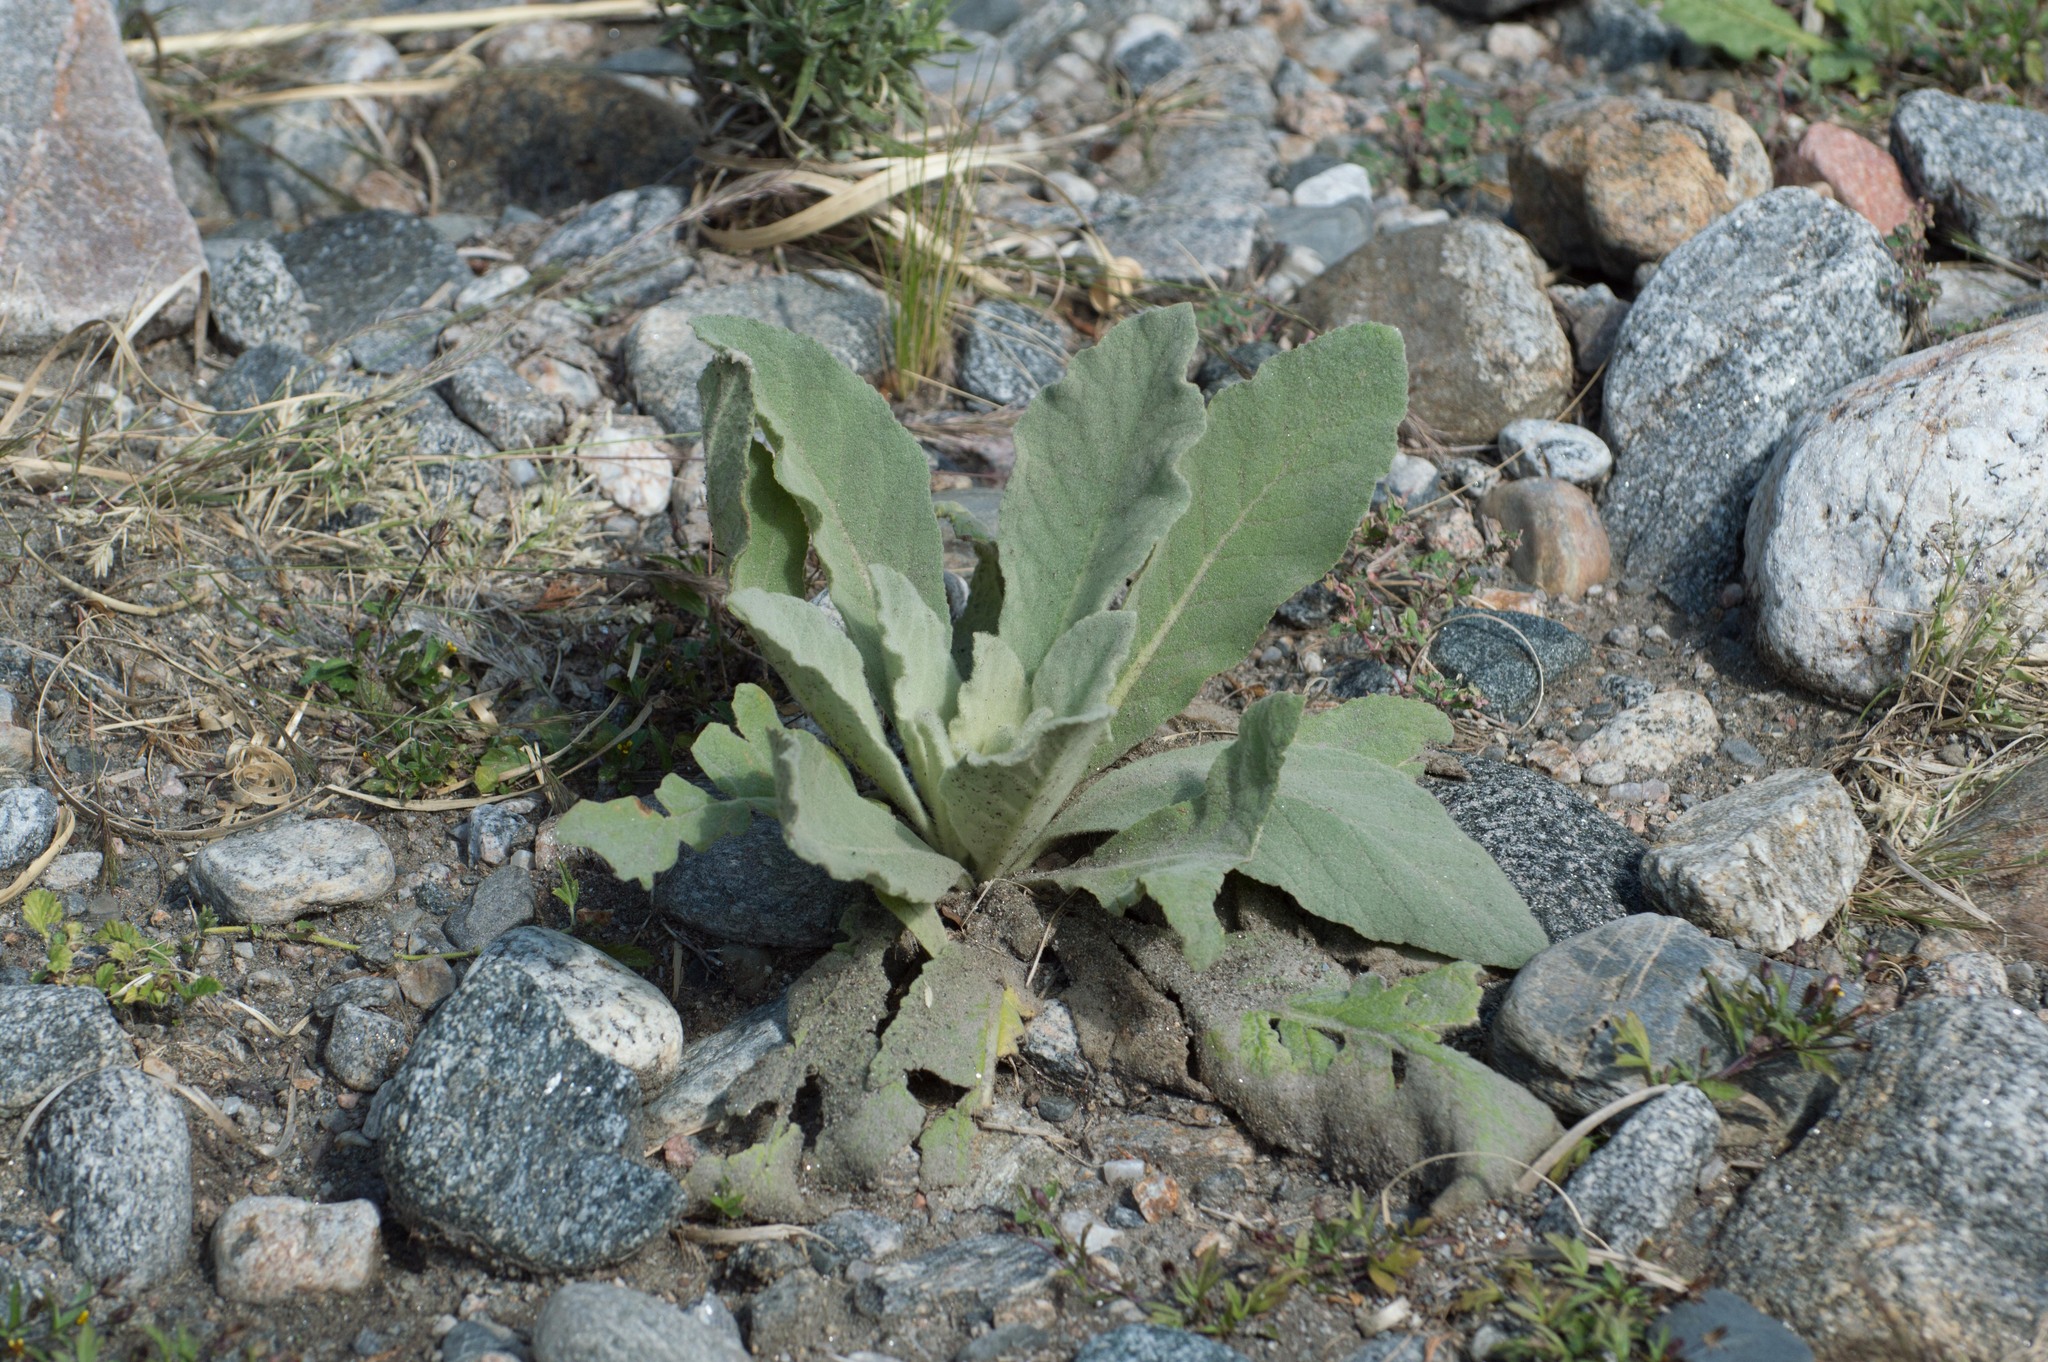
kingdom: Plantae
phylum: Tracheophyta
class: Magnoliopsida
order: Lamiales
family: Scrophulariaceae
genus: Verbascum
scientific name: Verbascum thapsus
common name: Common mullein
